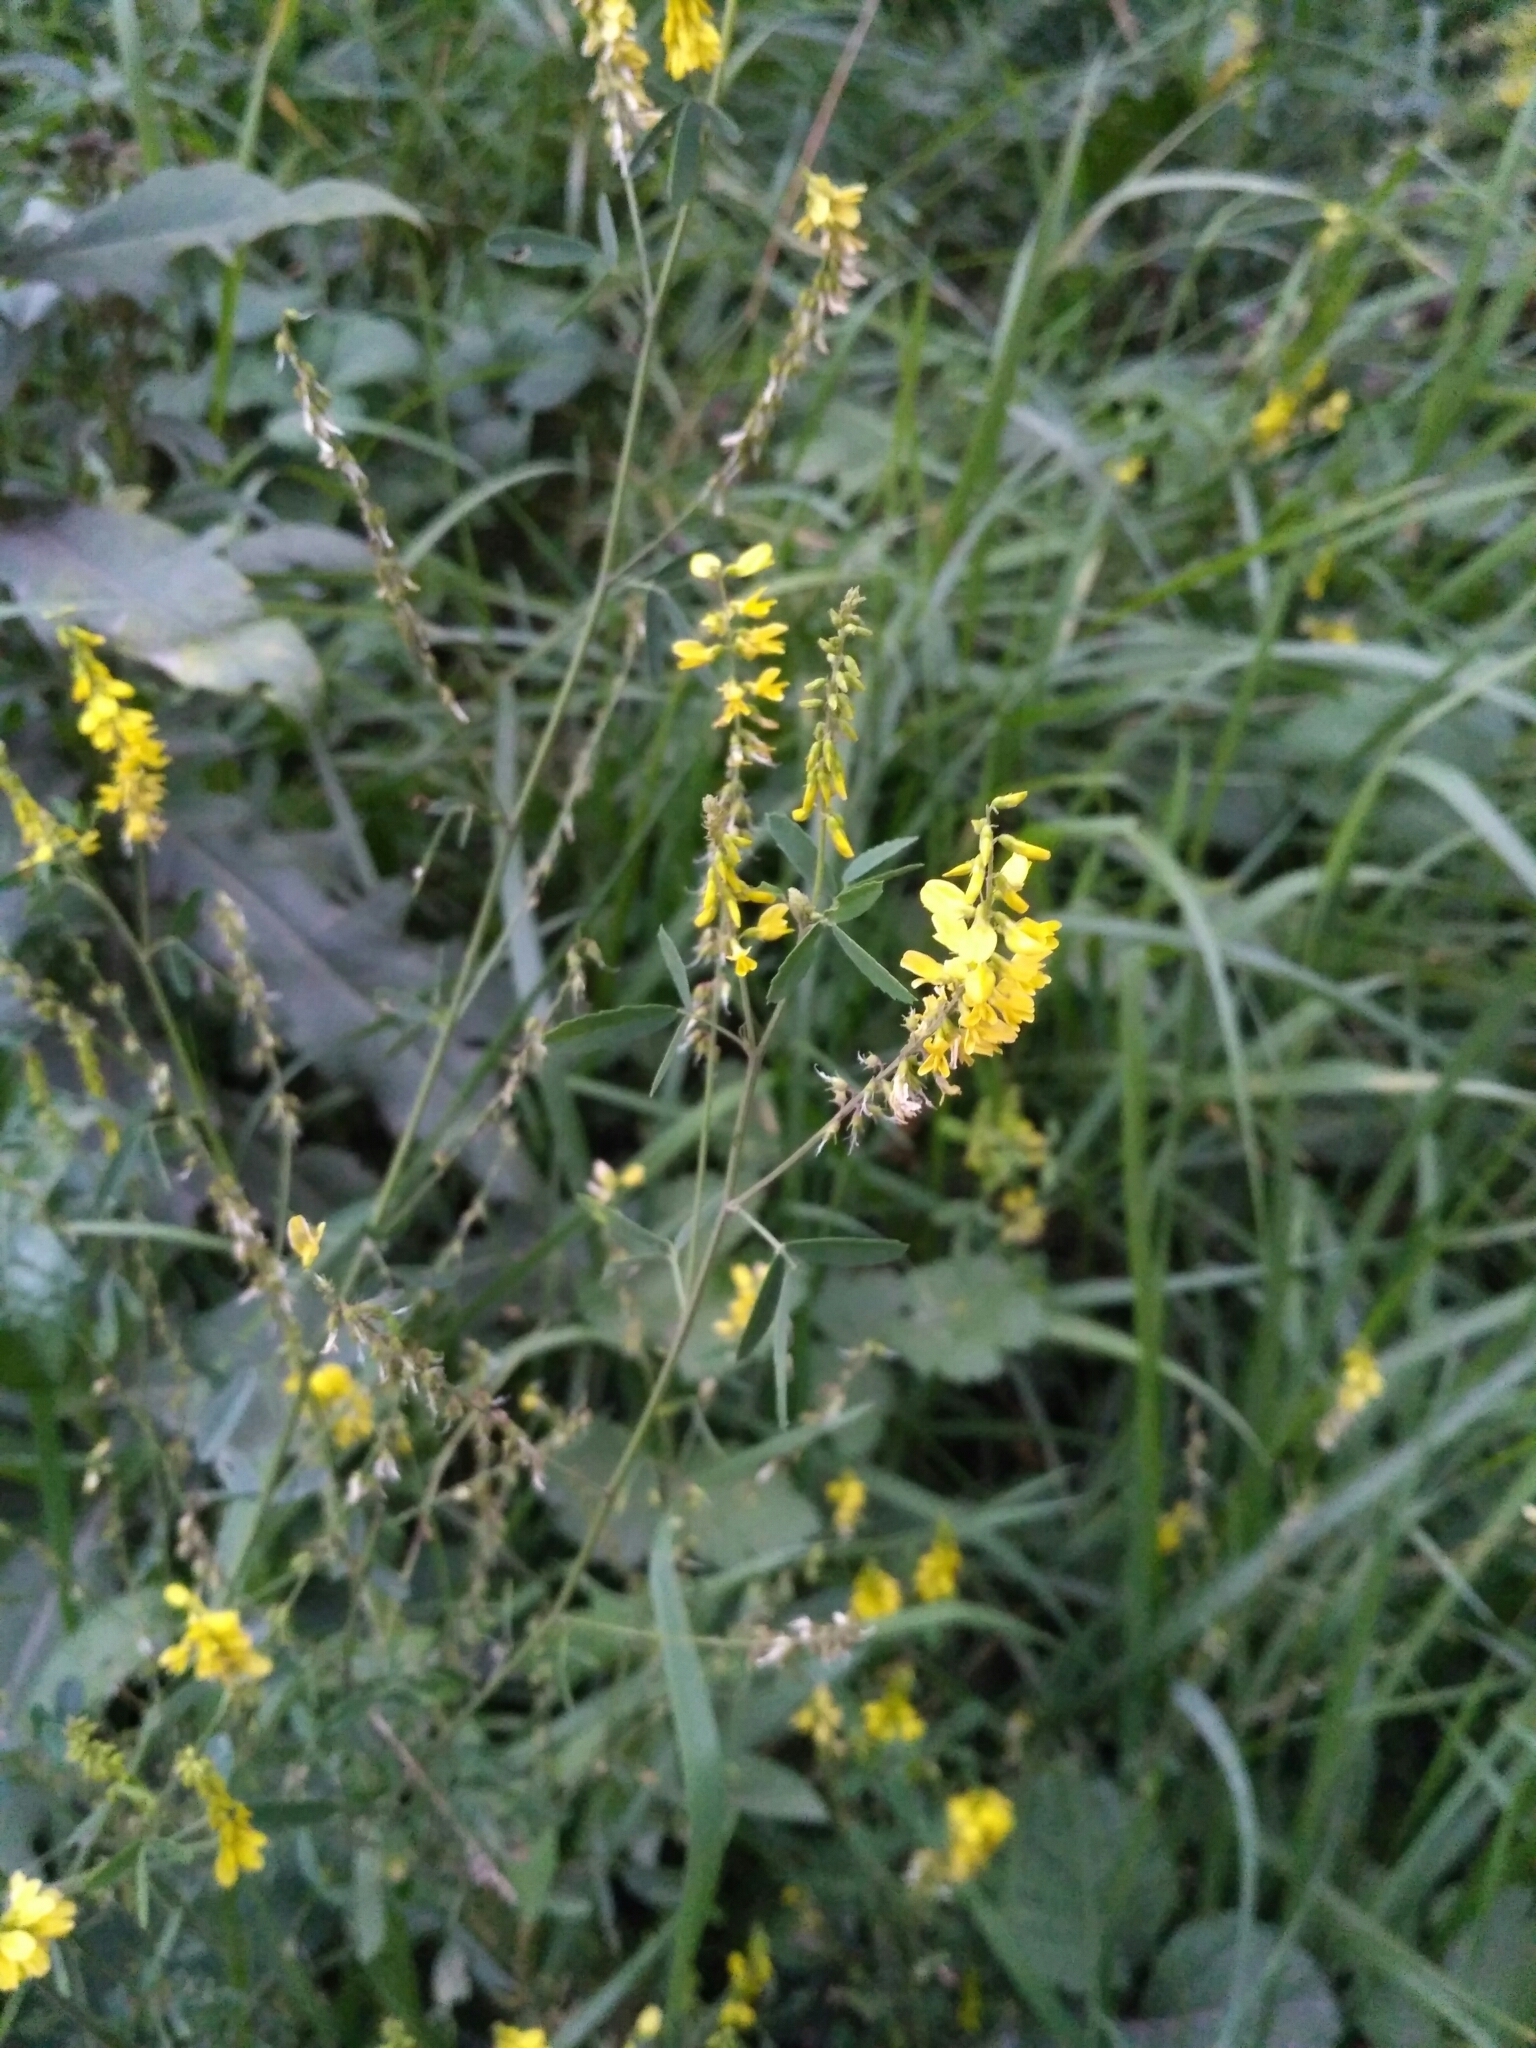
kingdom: Plantae
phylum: Tracheophyta
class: Magnoliopsida
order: Fabales
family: Fabaceae
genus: Melilotus
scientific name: Melilotus officinalis
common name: Sweetclover
